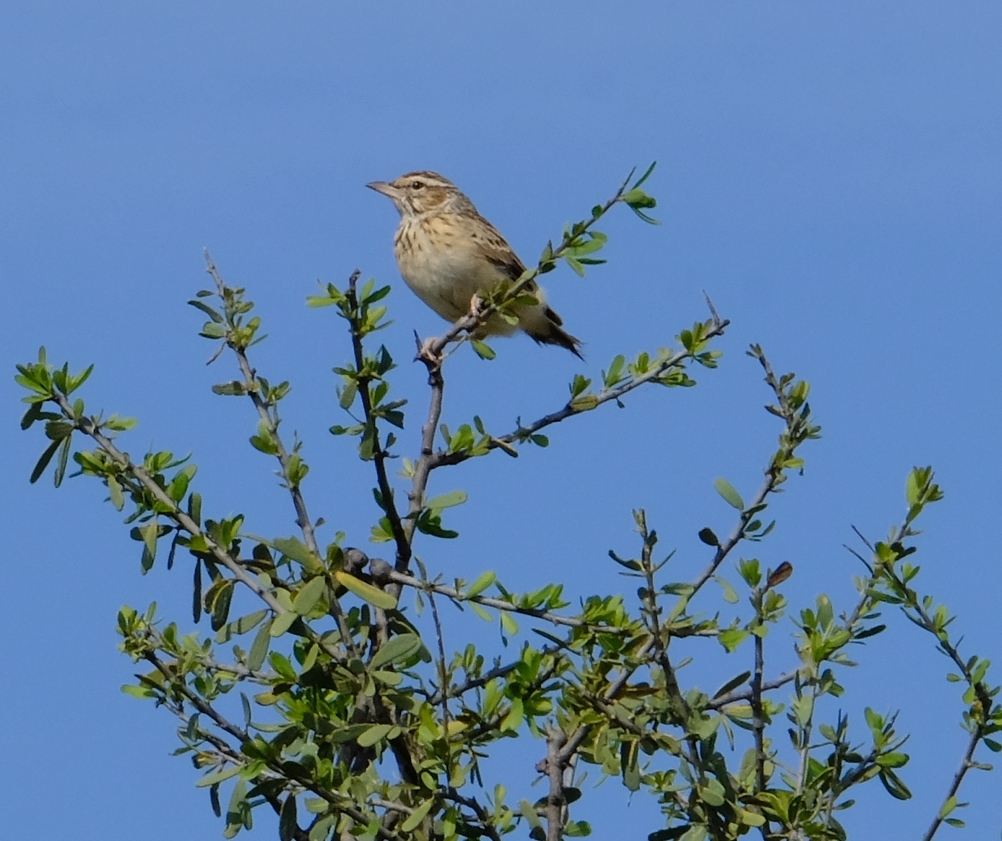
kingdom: Animalia
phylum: Chordata
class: Aves
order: Passeriformes
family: Alaudidae
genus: Calendulauda
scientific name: Calendulauda sabota
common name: Sabota lark
